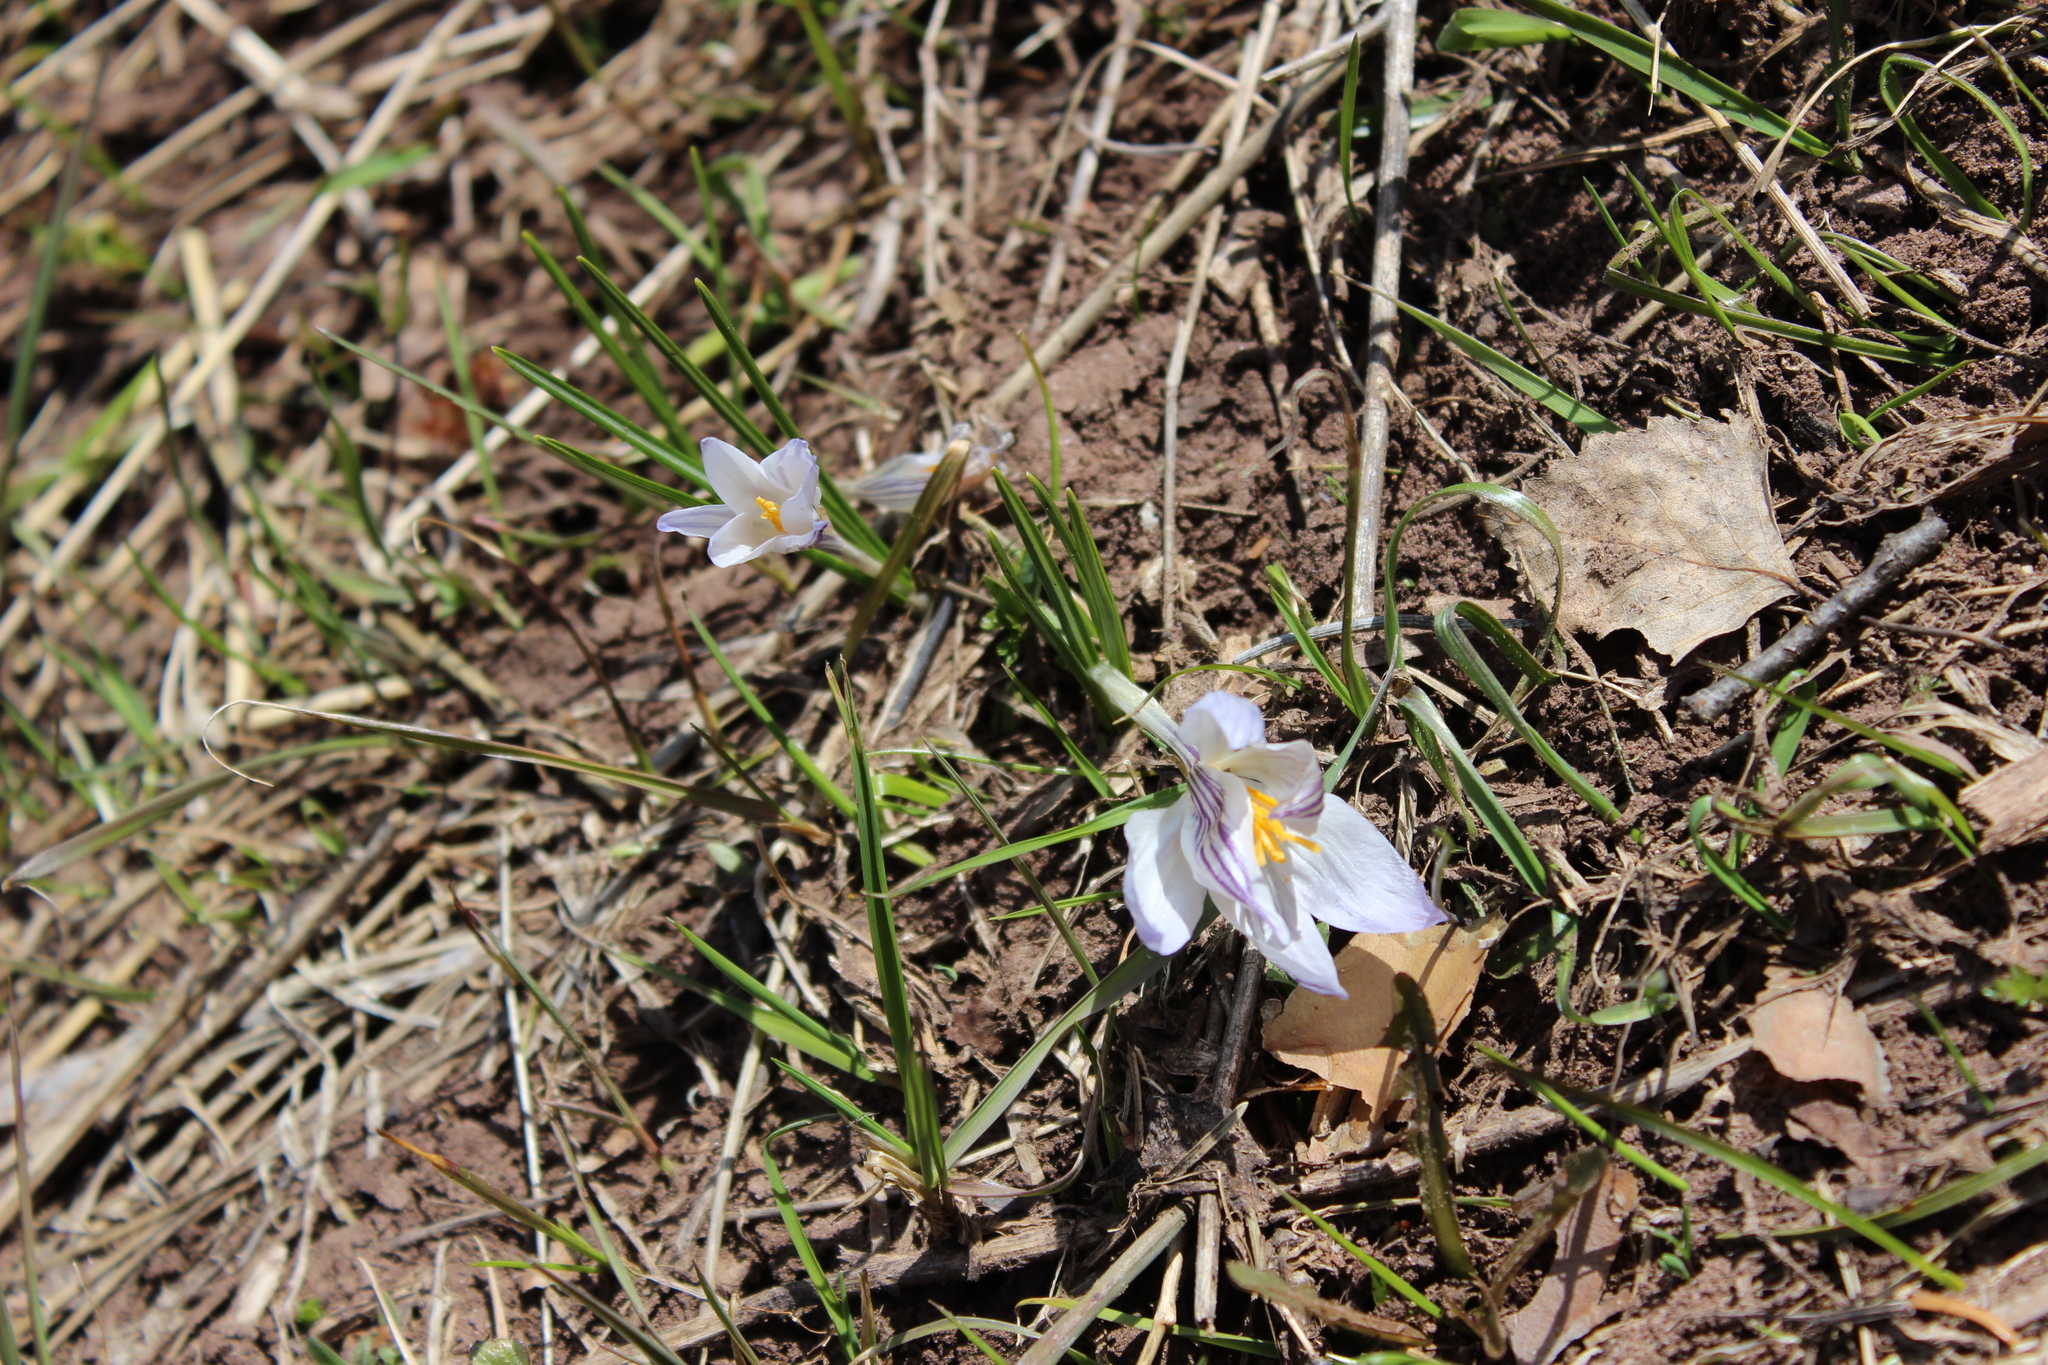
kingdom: Plantae
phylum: Tracheophyta
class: Liliopsida
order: Asparagales
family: Iridaceae
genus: Crocus
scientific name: Crocus reticulatus
